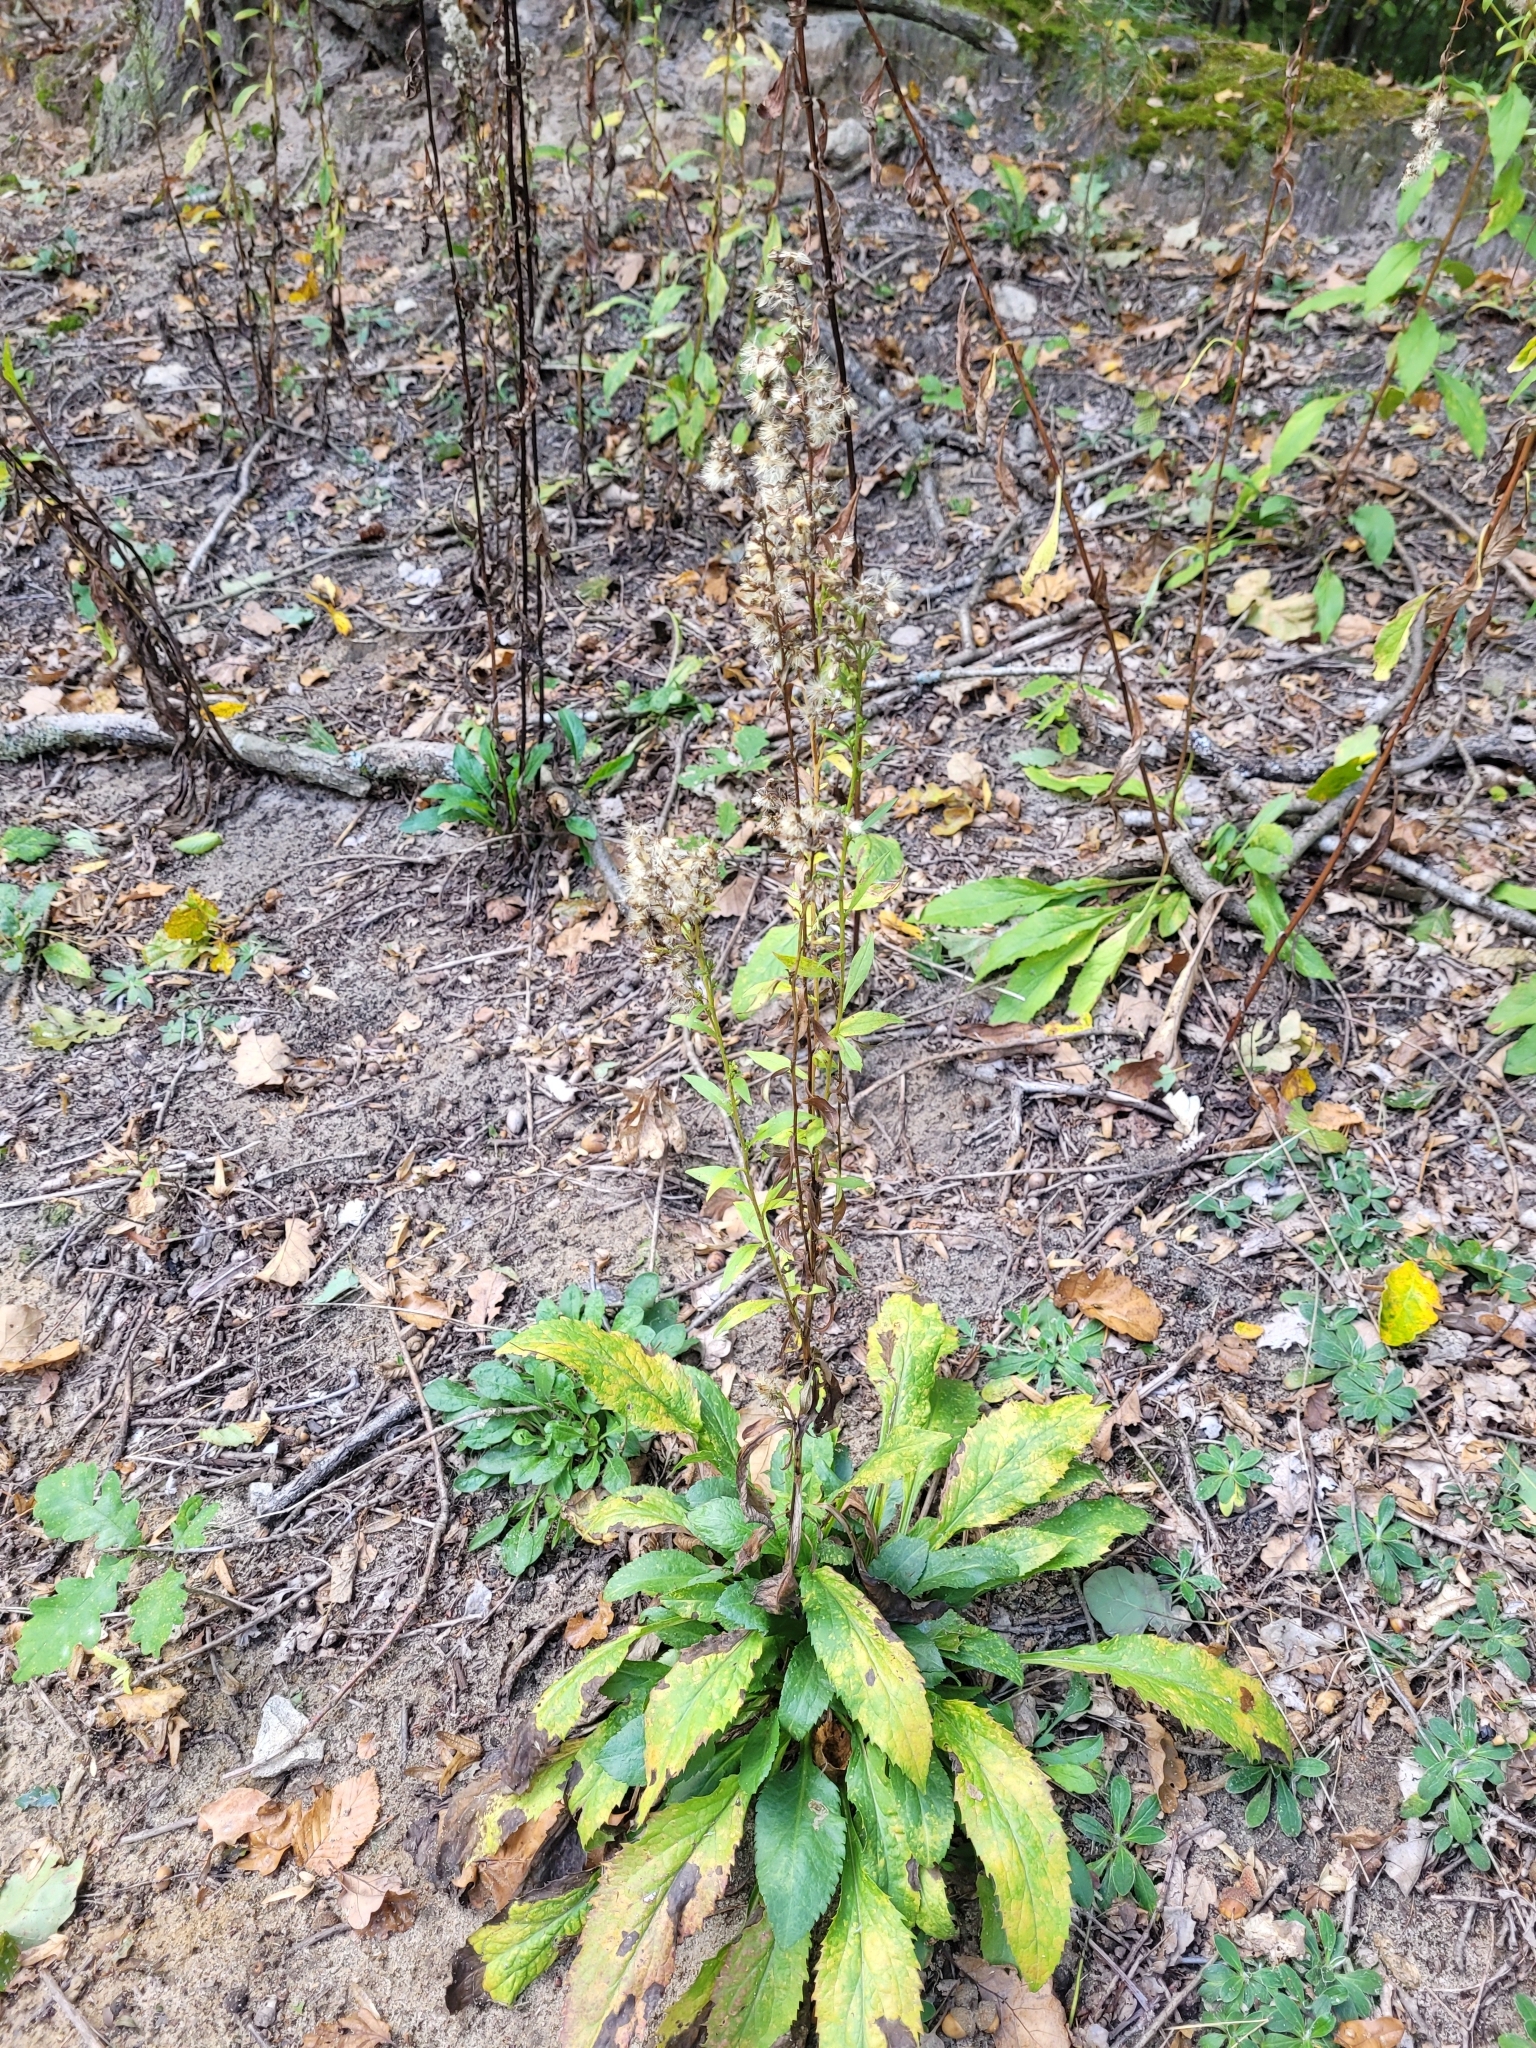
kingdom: Plantae
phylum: Tracheophyta
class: Magnoliopsida
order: Asterales
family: Asteraceae
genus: Solidago
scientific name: Solidago virgaurea
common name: Goldenrod
